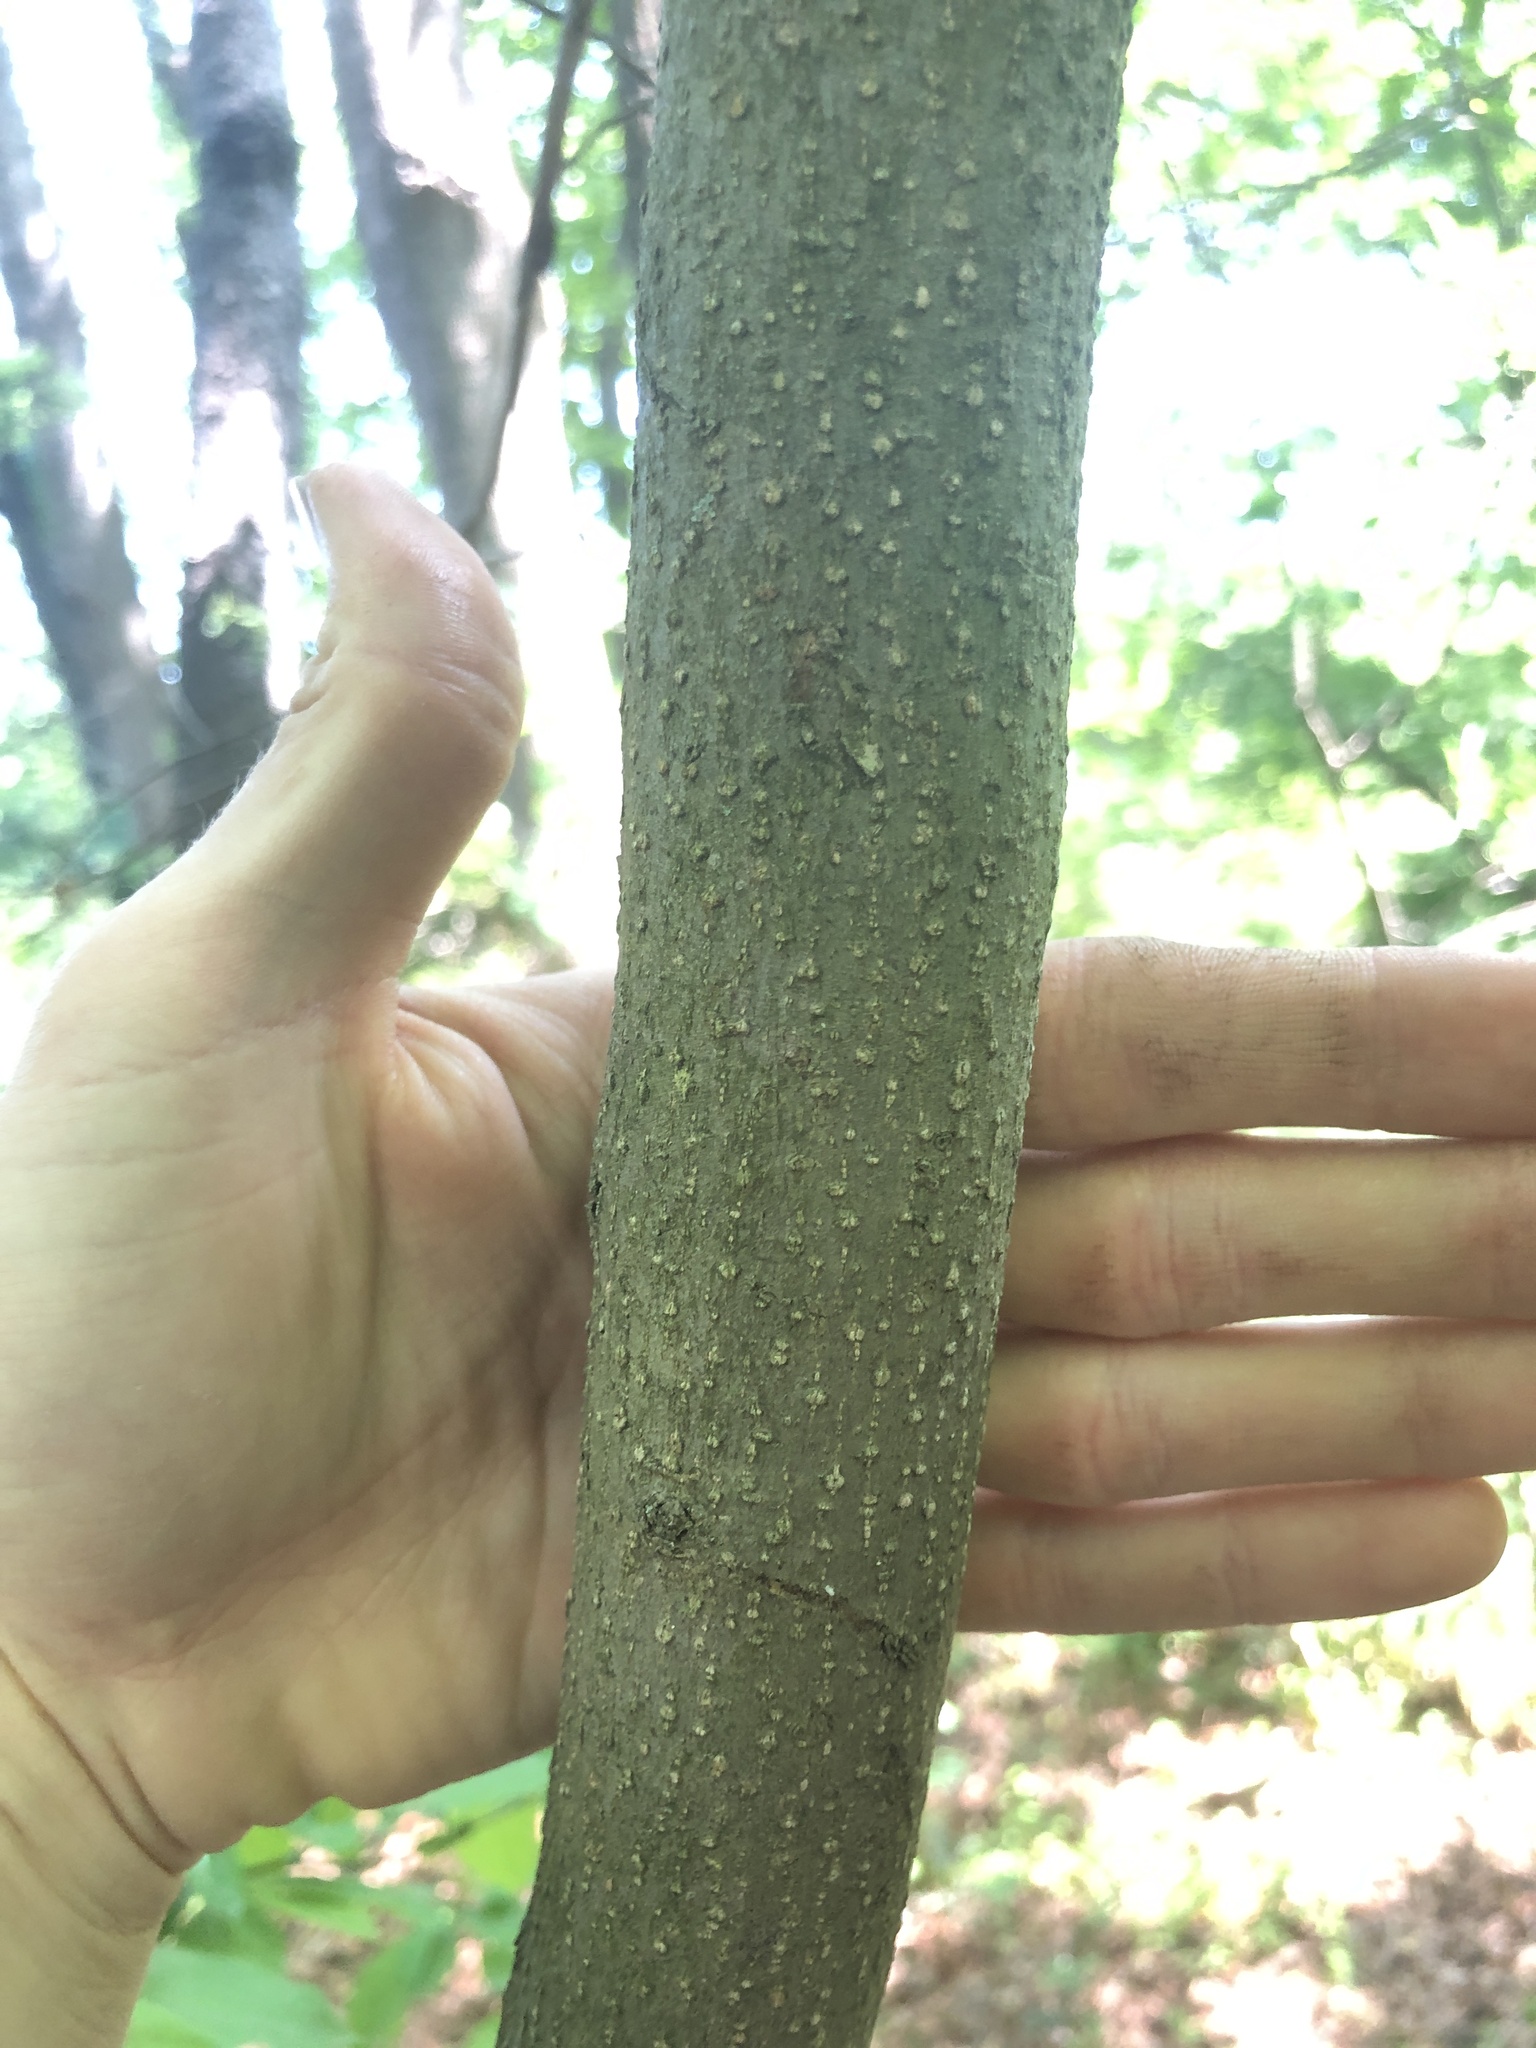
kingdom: Plantae
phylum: Tracheophyta
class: Magnoliopsida
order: Laurales
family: Lauraceae
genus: Lindera
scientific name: Lindera benzoin
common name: Spicebush
